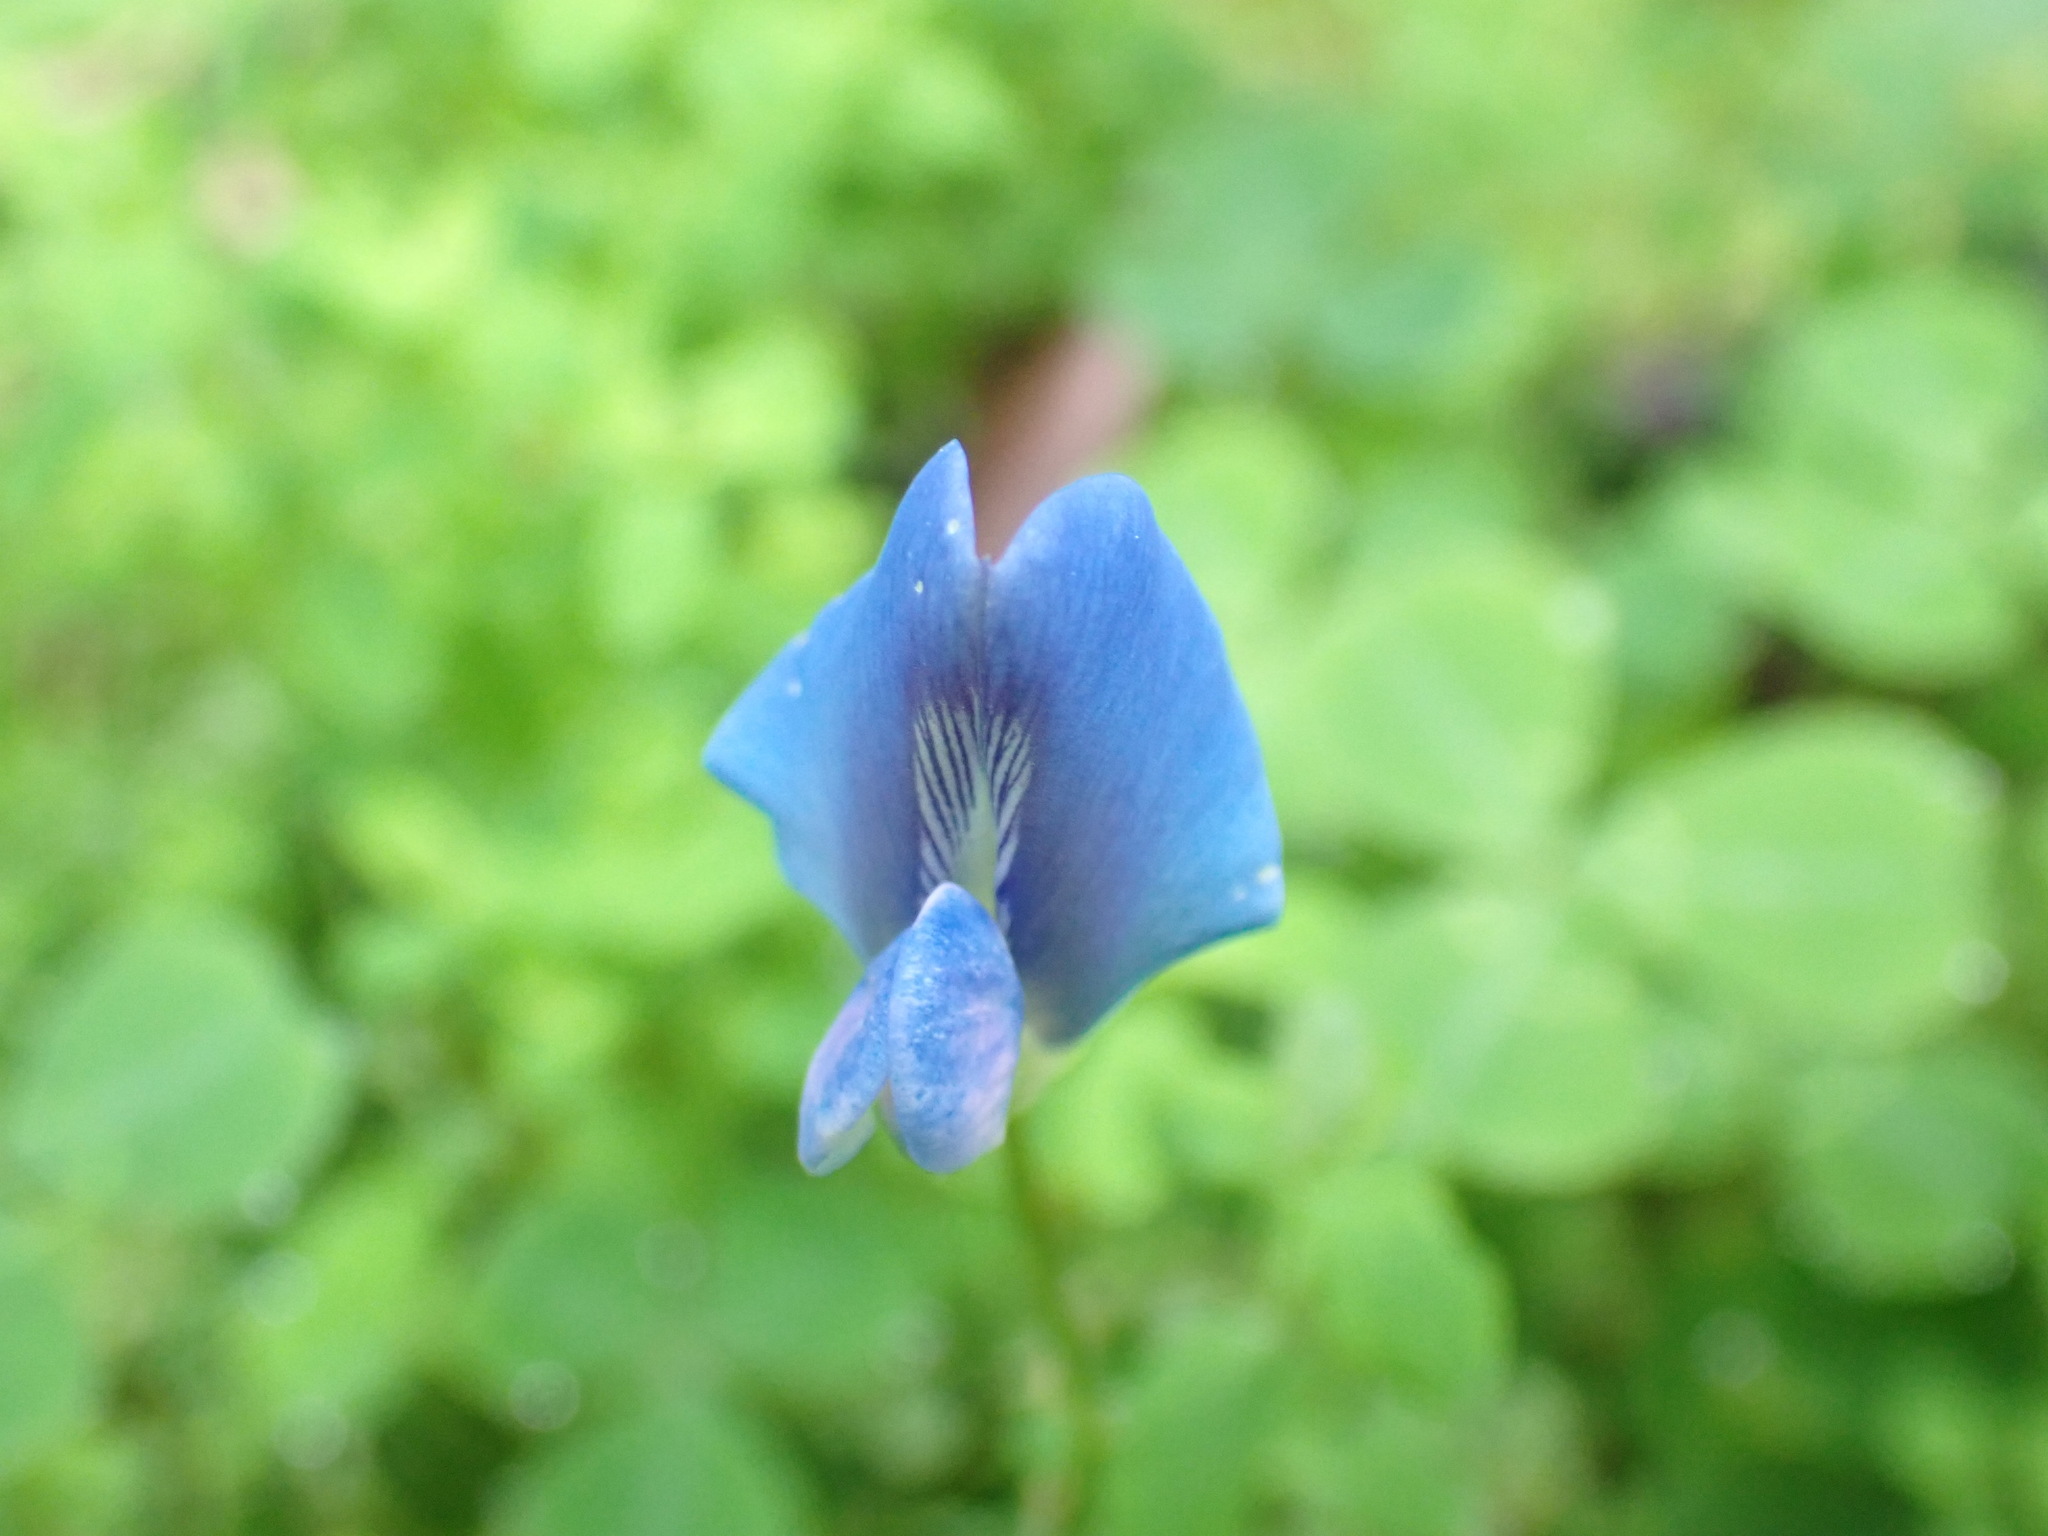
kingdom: Plantae
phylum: Tracheophyta
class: Magnoliopsida
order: Fabales
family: Fabaceae
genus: Parochetus
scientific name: Parochetus communis
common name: Blue oxalis
